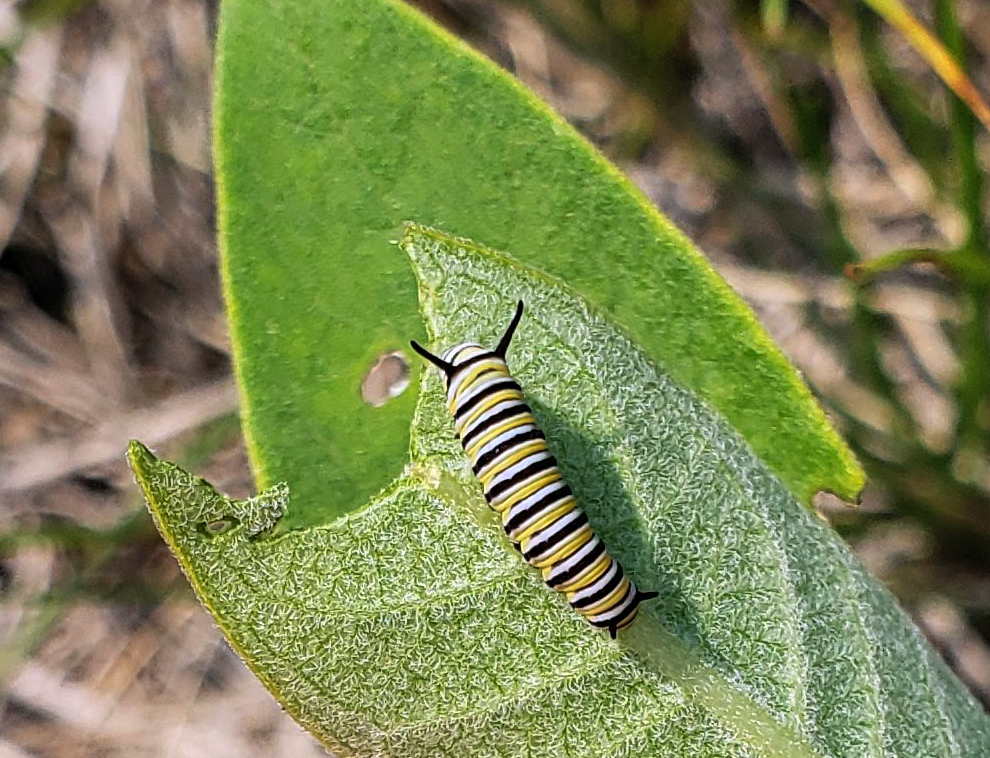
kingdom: Animalia
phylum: Arthropoda
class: Insecta
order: Lepidoptera
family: Nymphalidae
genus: Danaus
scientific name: Danaus plexippus
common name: Monarch
